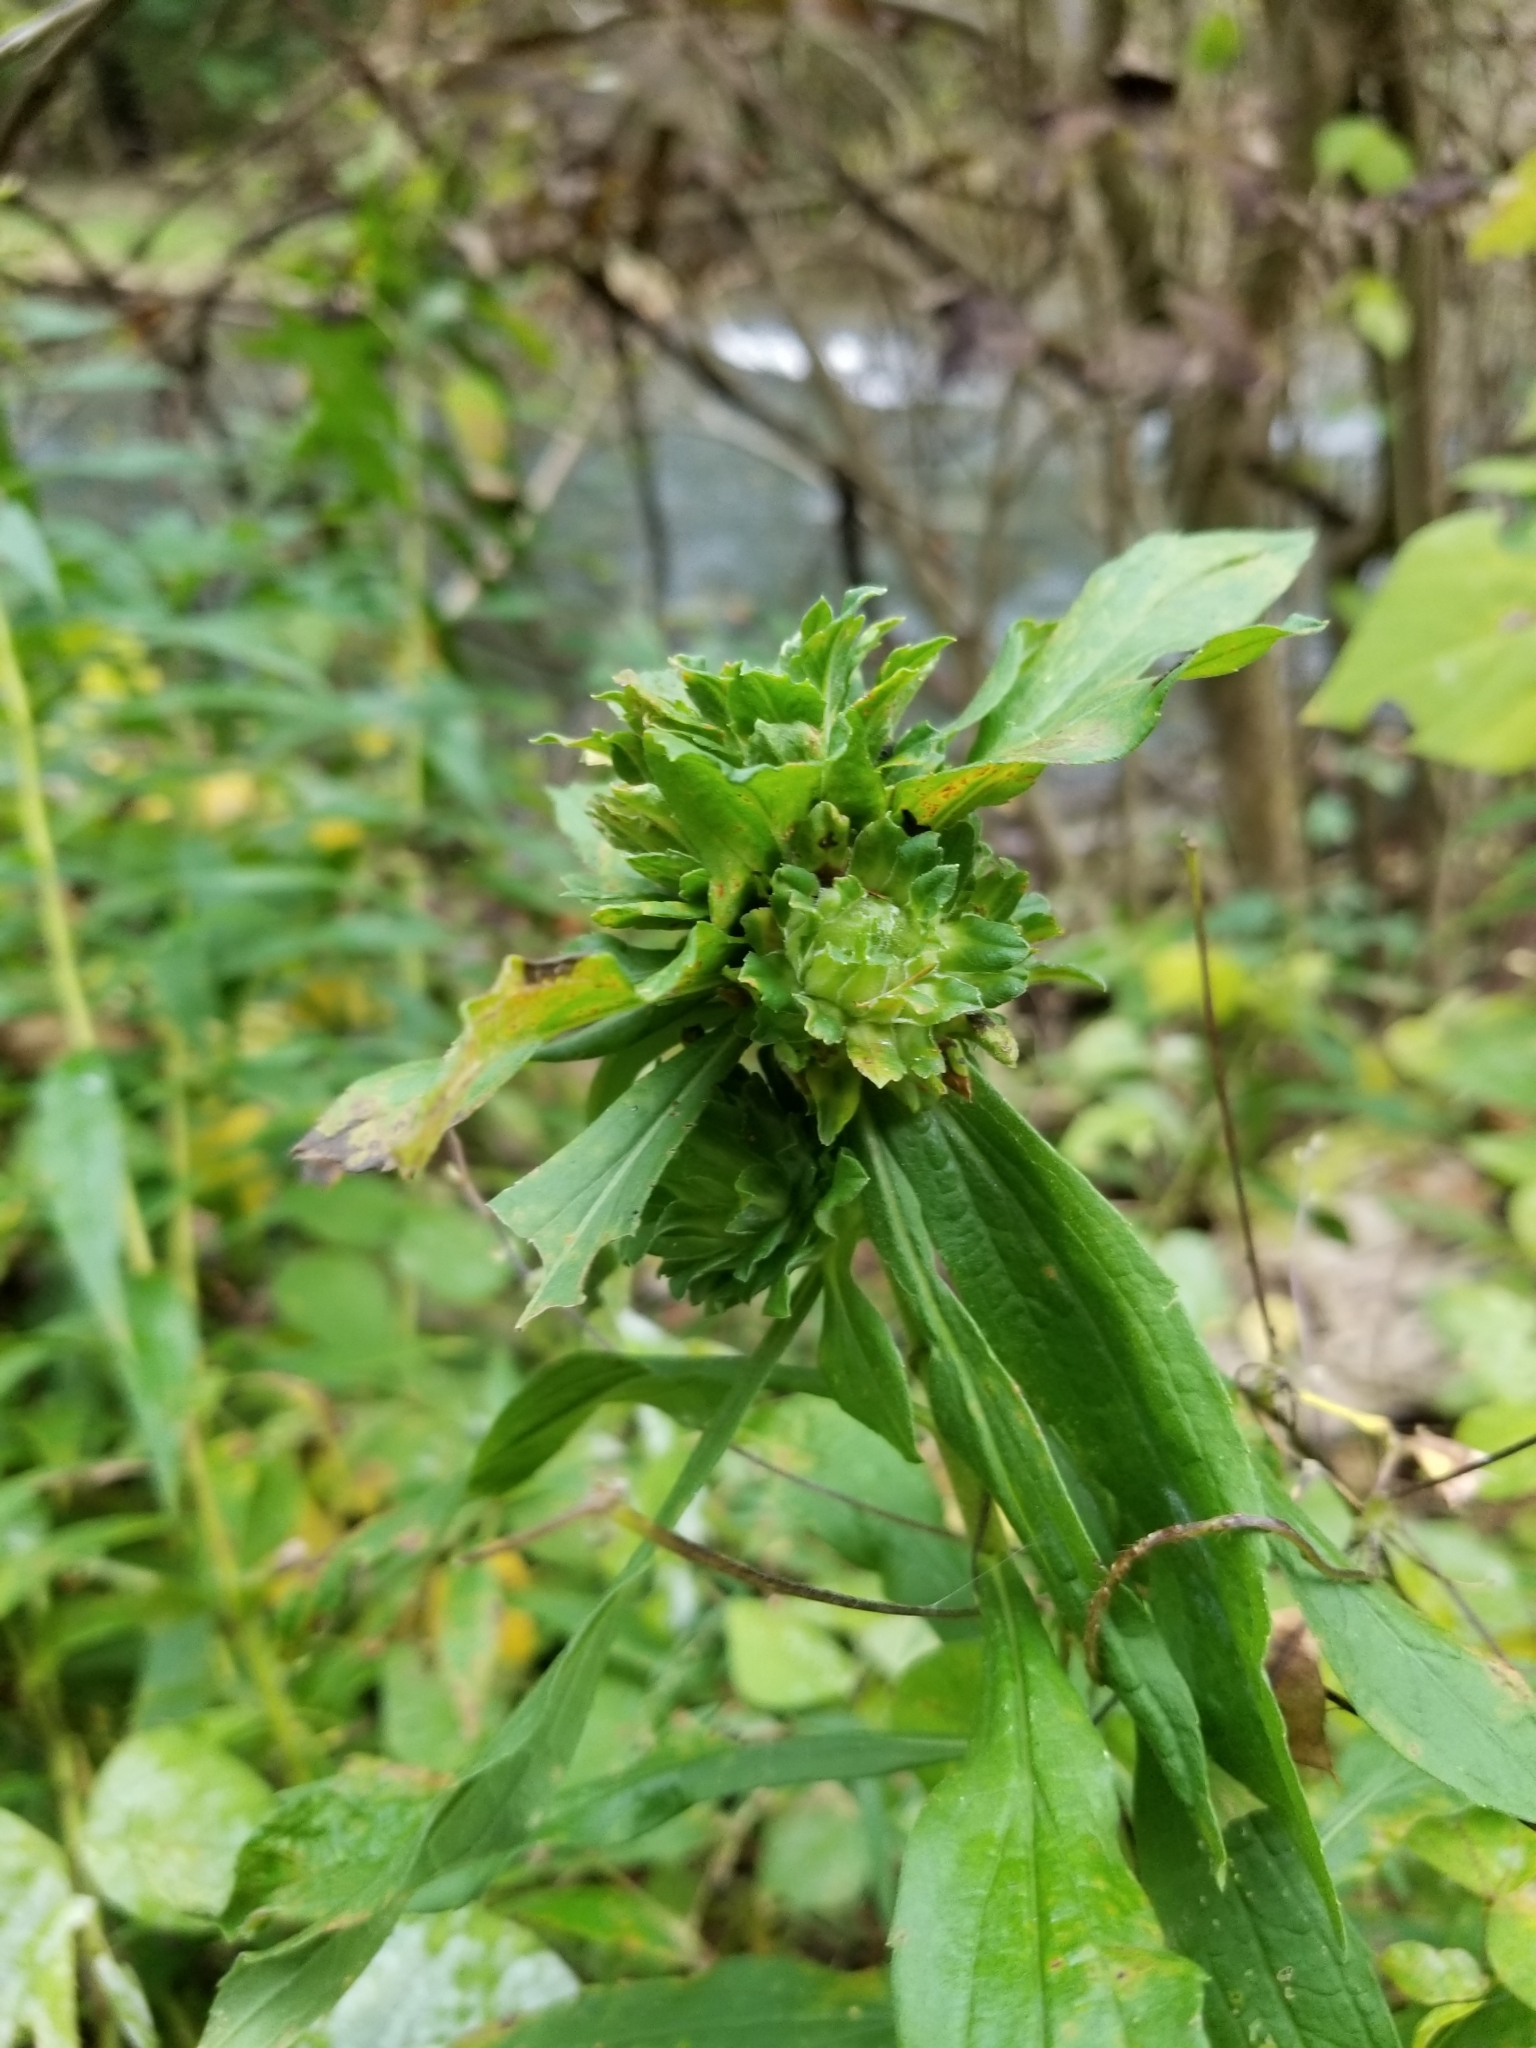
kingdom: Animalia
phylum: Arthropoda
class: Insecta
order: Diptera
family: Tephritidae
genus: Procecidochares
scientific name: Procecidochares atra
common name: Goldenrod brussels sprout gall fly
